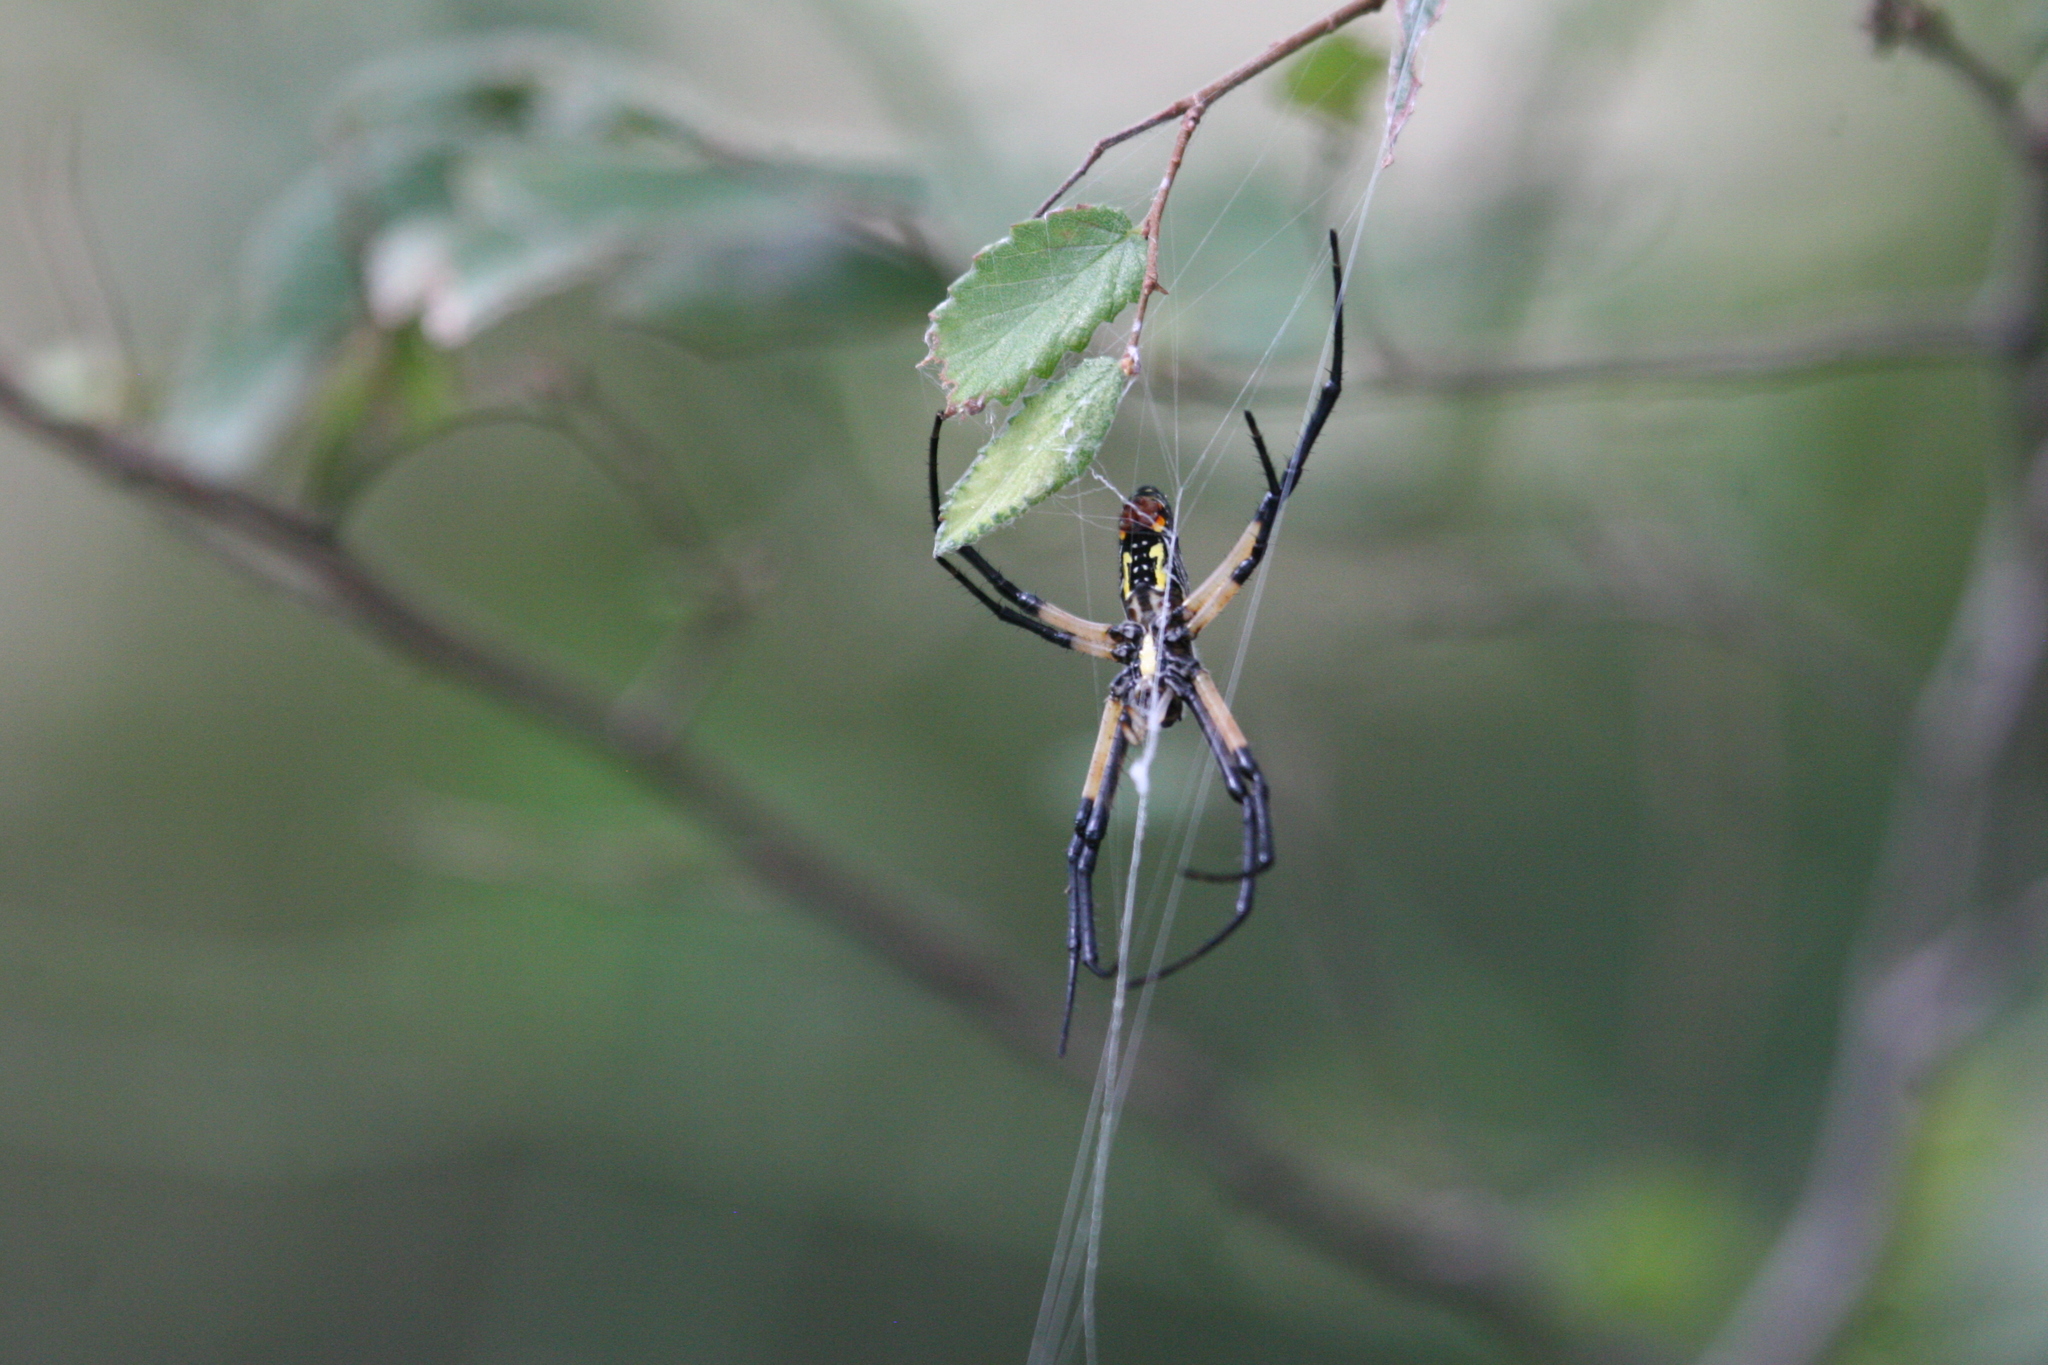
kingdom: Animalia
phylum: Arthropoda
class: Arachnida
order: Araneae
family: Araneidae
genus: Argiope
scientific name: Argiope aurantia
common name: Orb weavers
